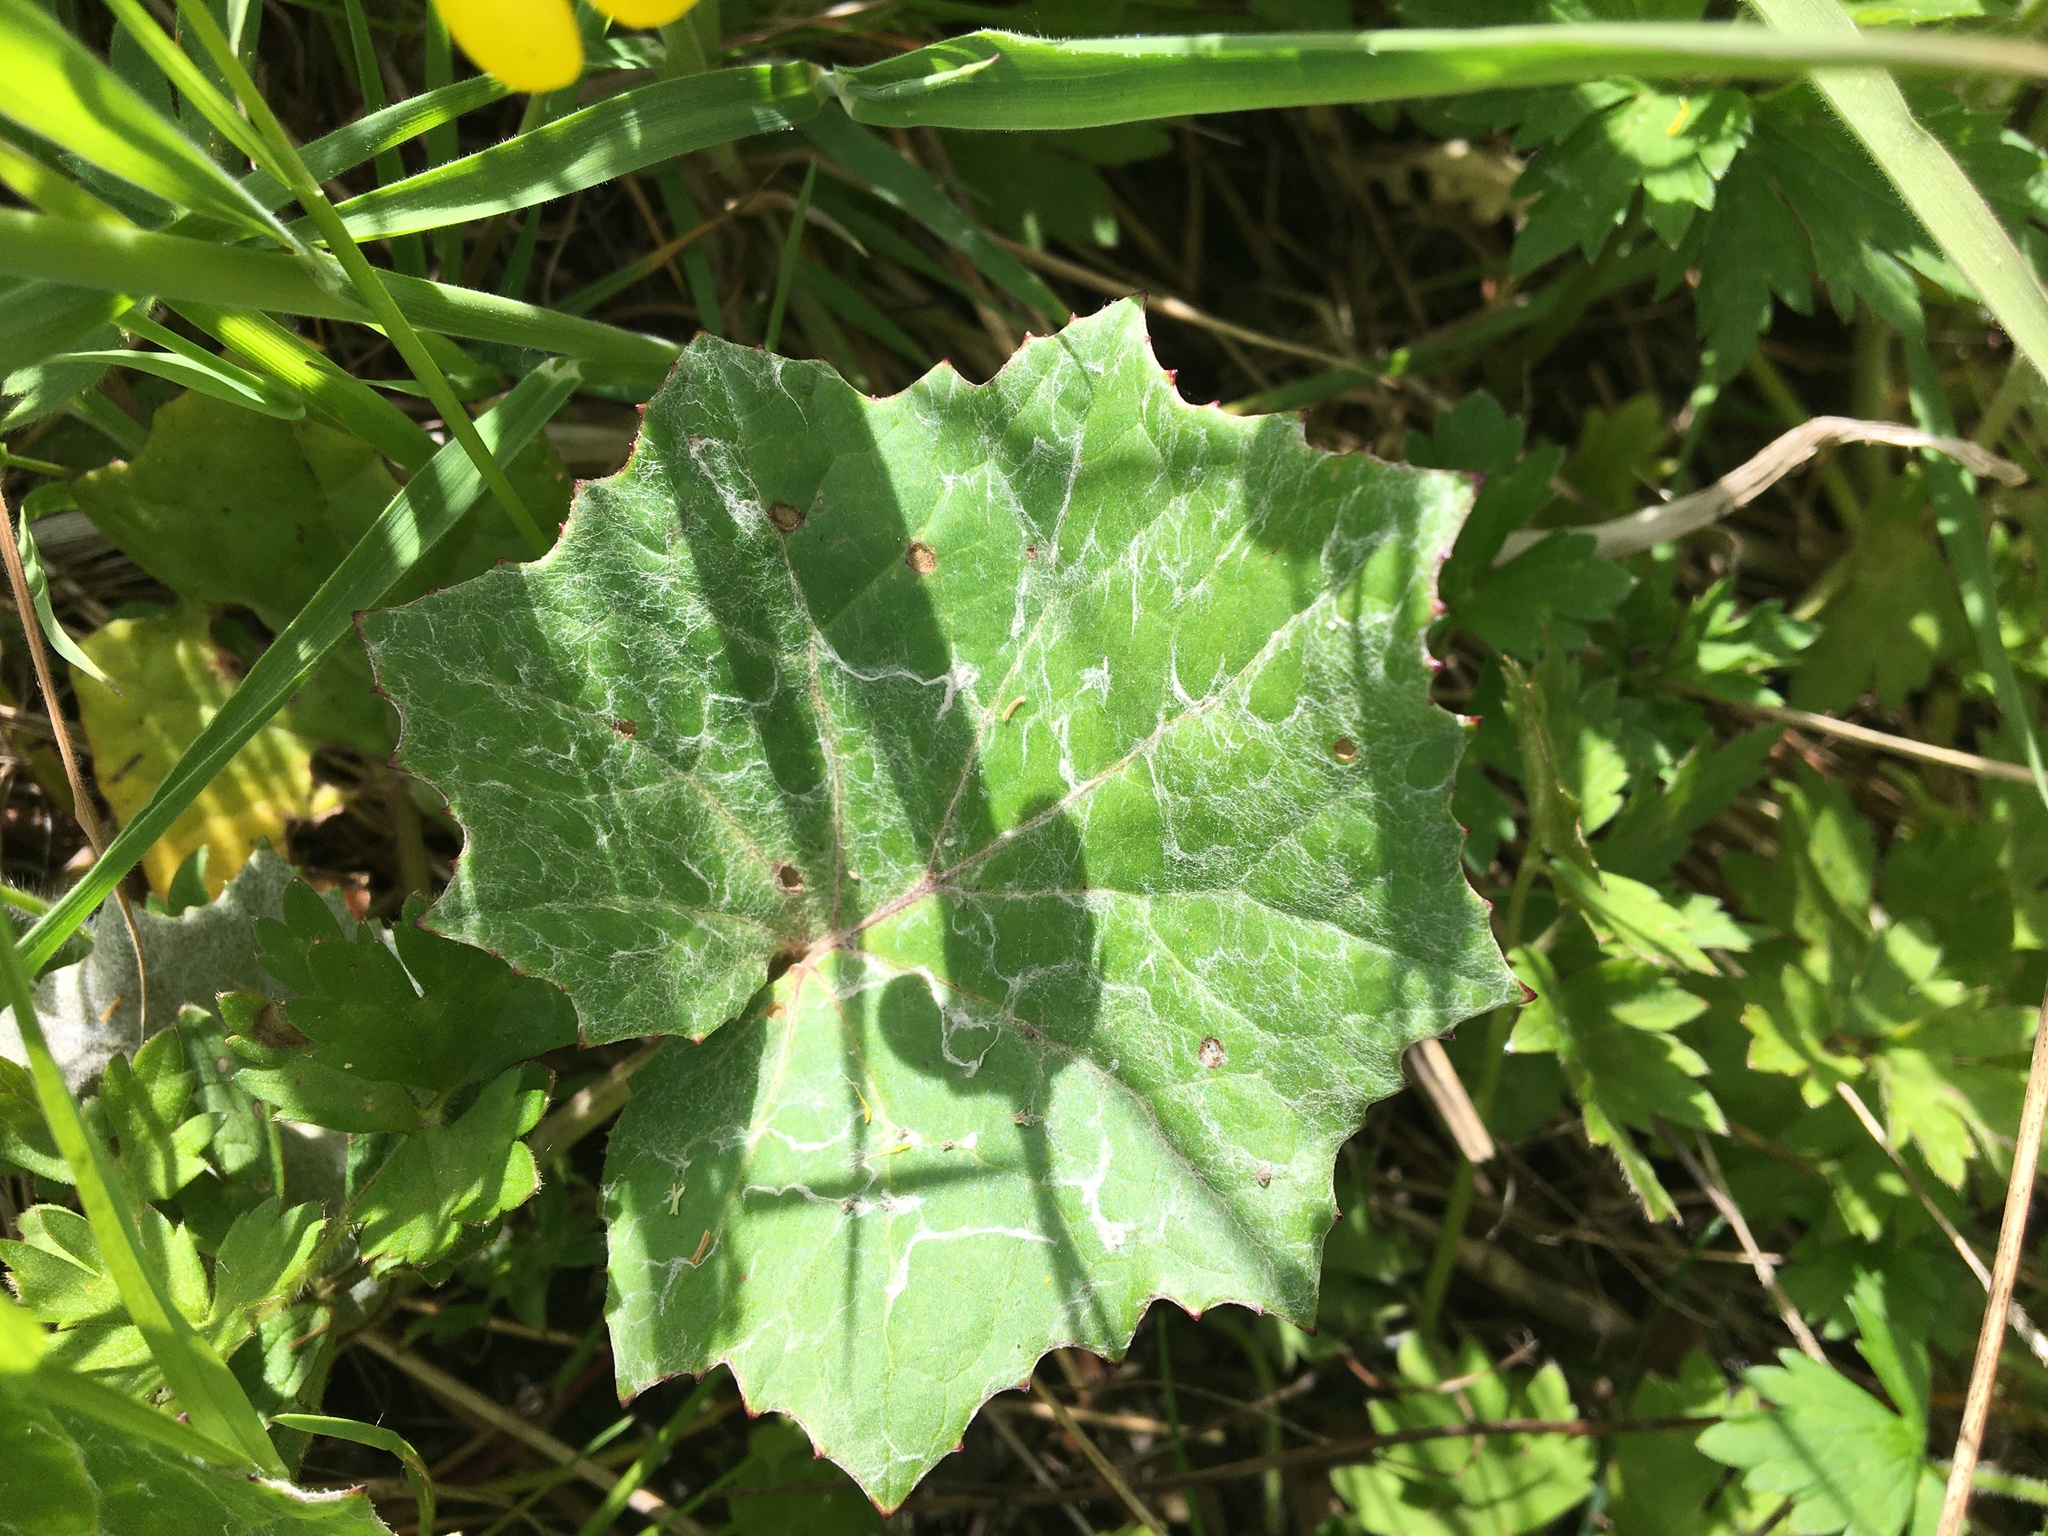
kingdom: Plantae
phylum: Tracheophyta
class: Magnoliopsida
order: Asterales
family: Asteraceae
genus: Tussilago
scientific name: Tussilago farfara
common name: Coltsfoot
